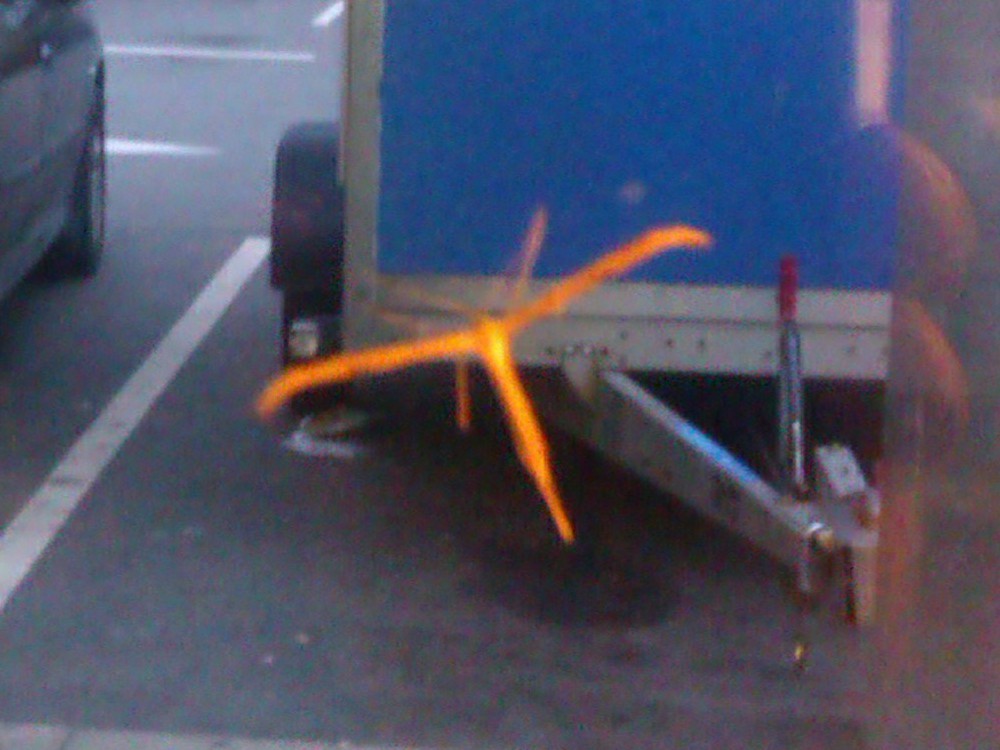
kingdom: Animalia
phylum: Arthropoda
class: Insecta
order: Lepidoptera
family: Pterophoridae
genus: Emmelina
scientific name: Emmelina monodactyla
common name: Common plume
